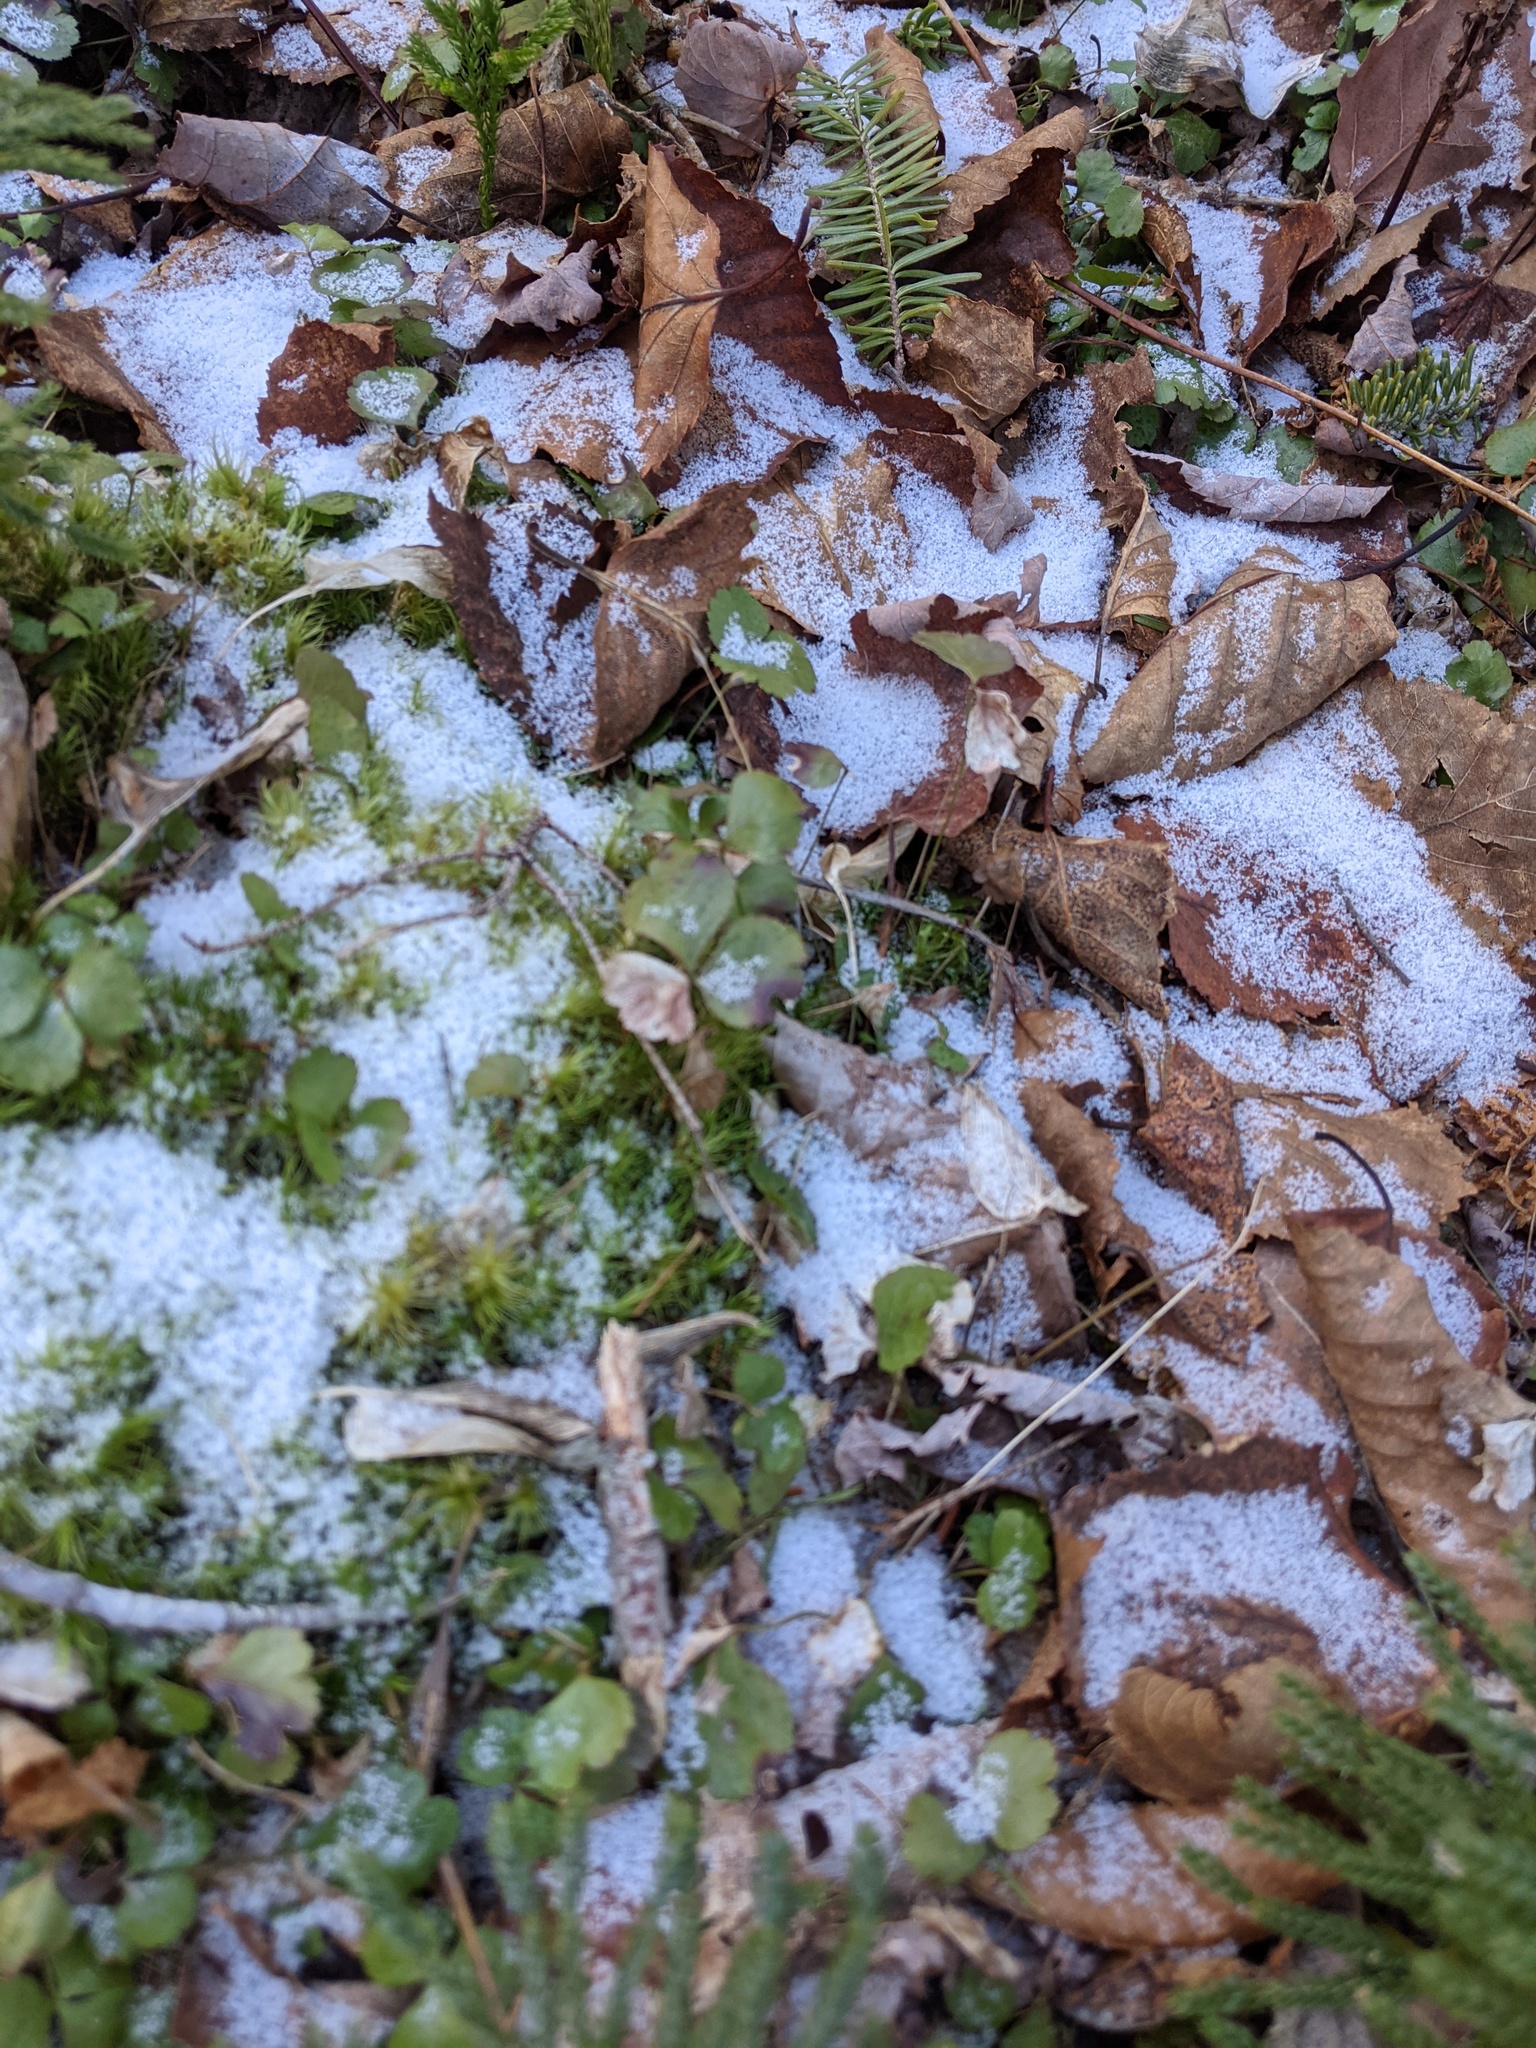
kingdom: Plantae
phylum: Tracheophyta
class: Magnoliopsida
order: Ranunculales
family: Ranunculaceae
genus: Coptis
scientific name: Coptis trifolia
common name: Canker-root
